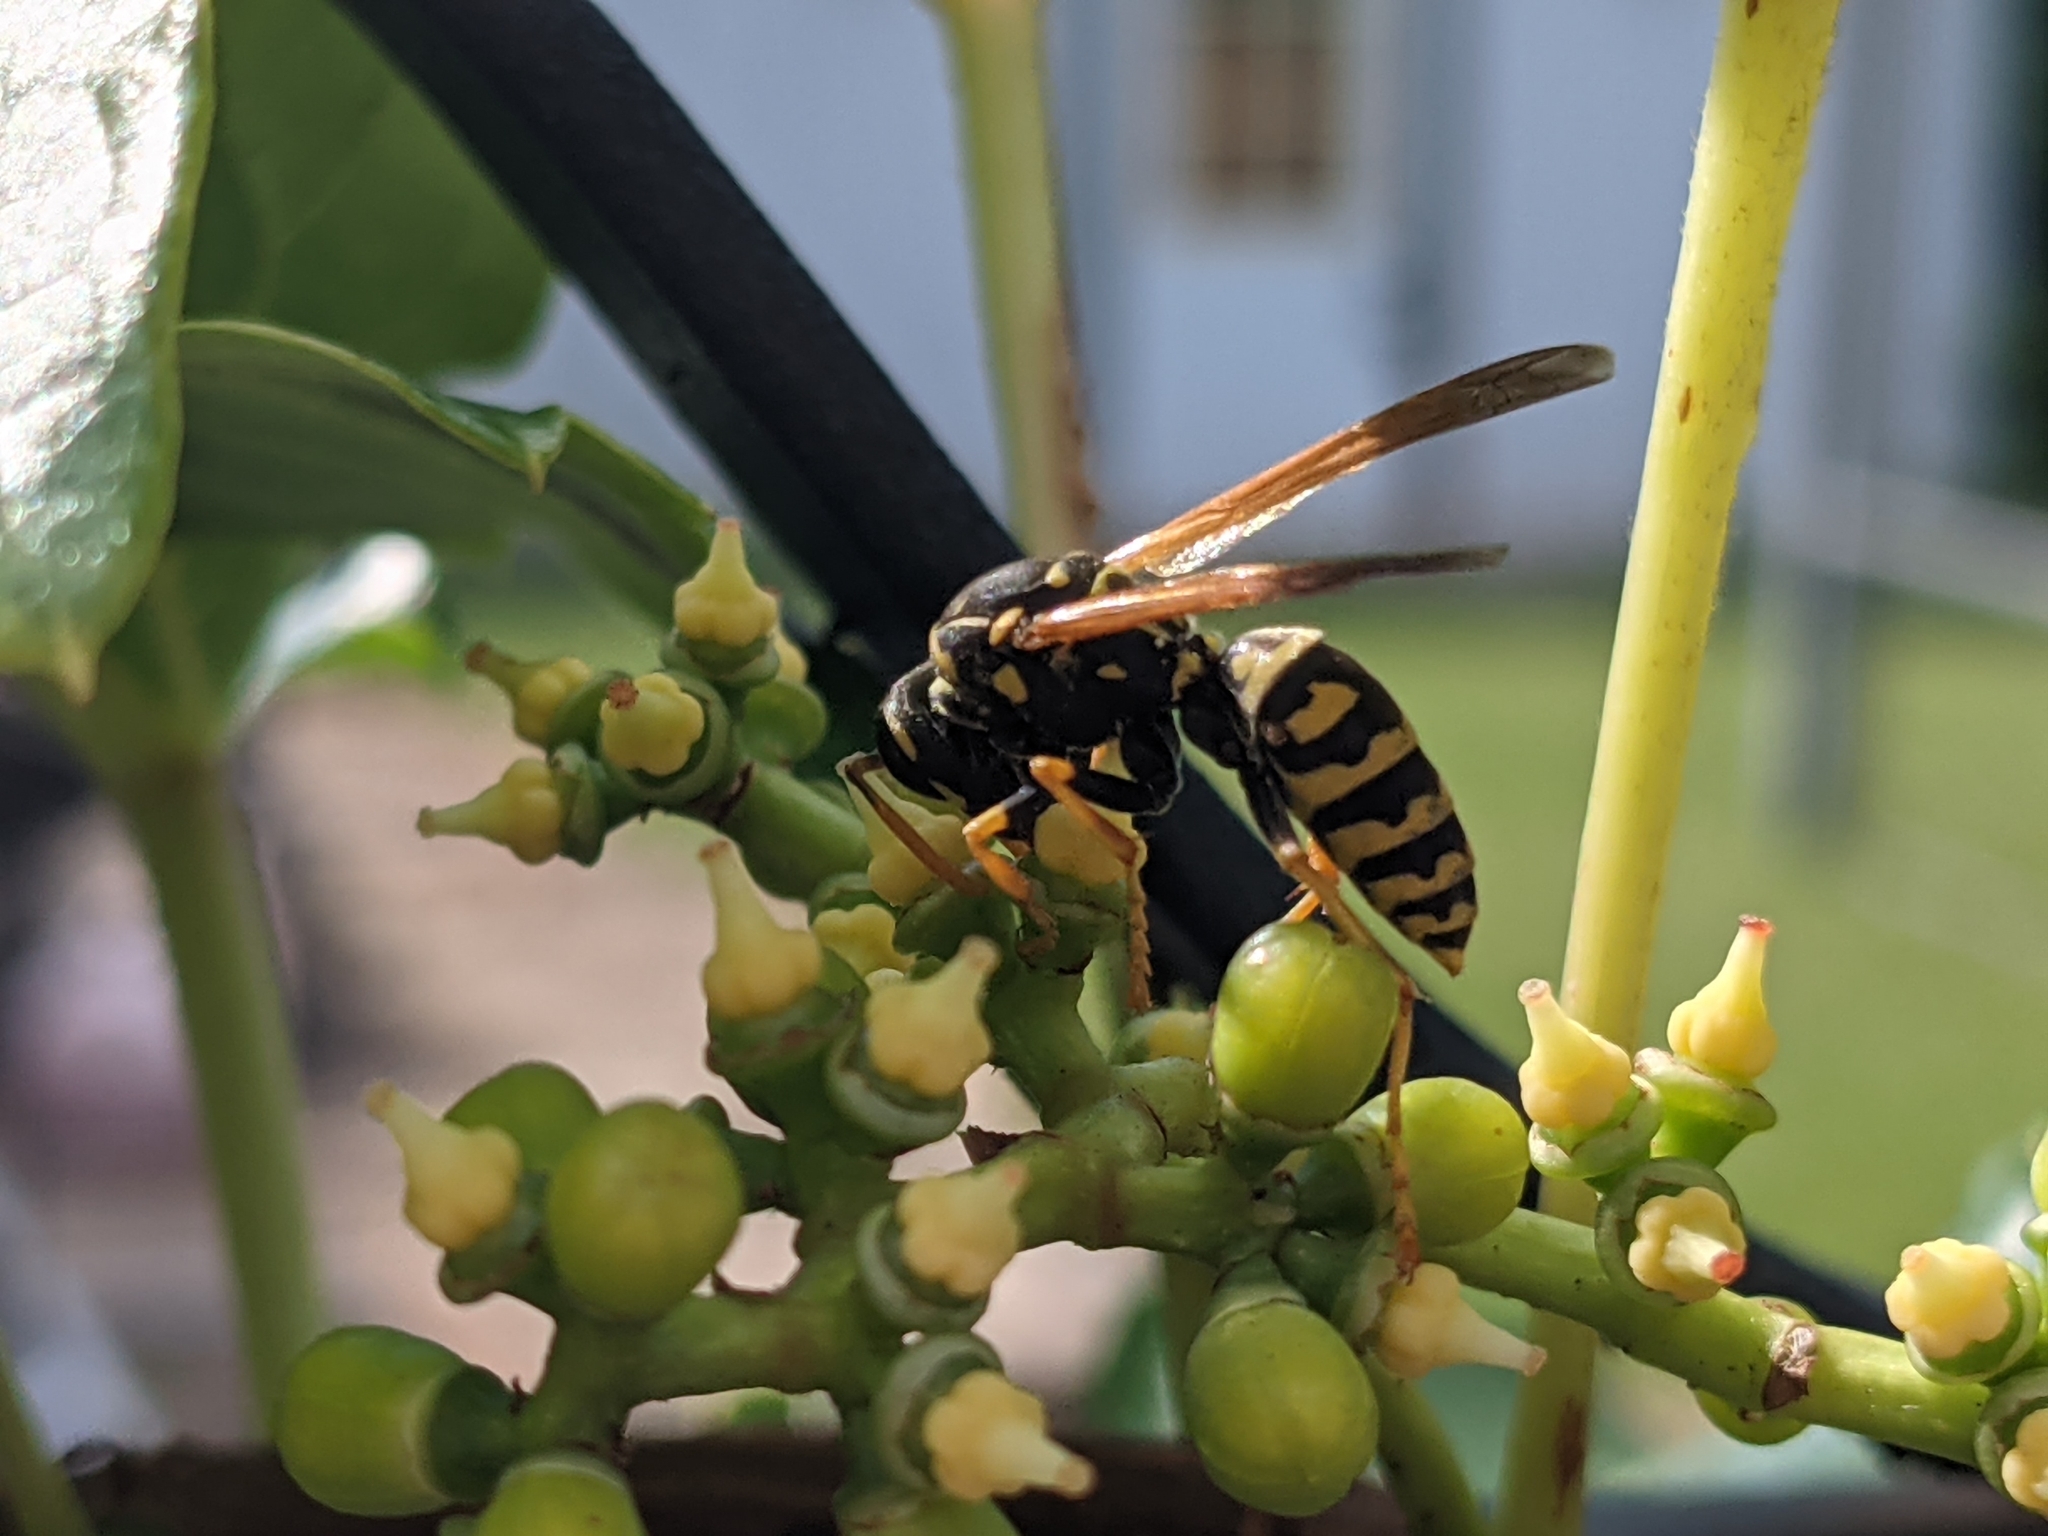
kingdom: Animalia
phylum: Arthropoda
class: Insecta
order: Hymenoptera
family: Eumenidae
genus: Polistes
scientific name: Polistes dominula
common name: Paper wasp
